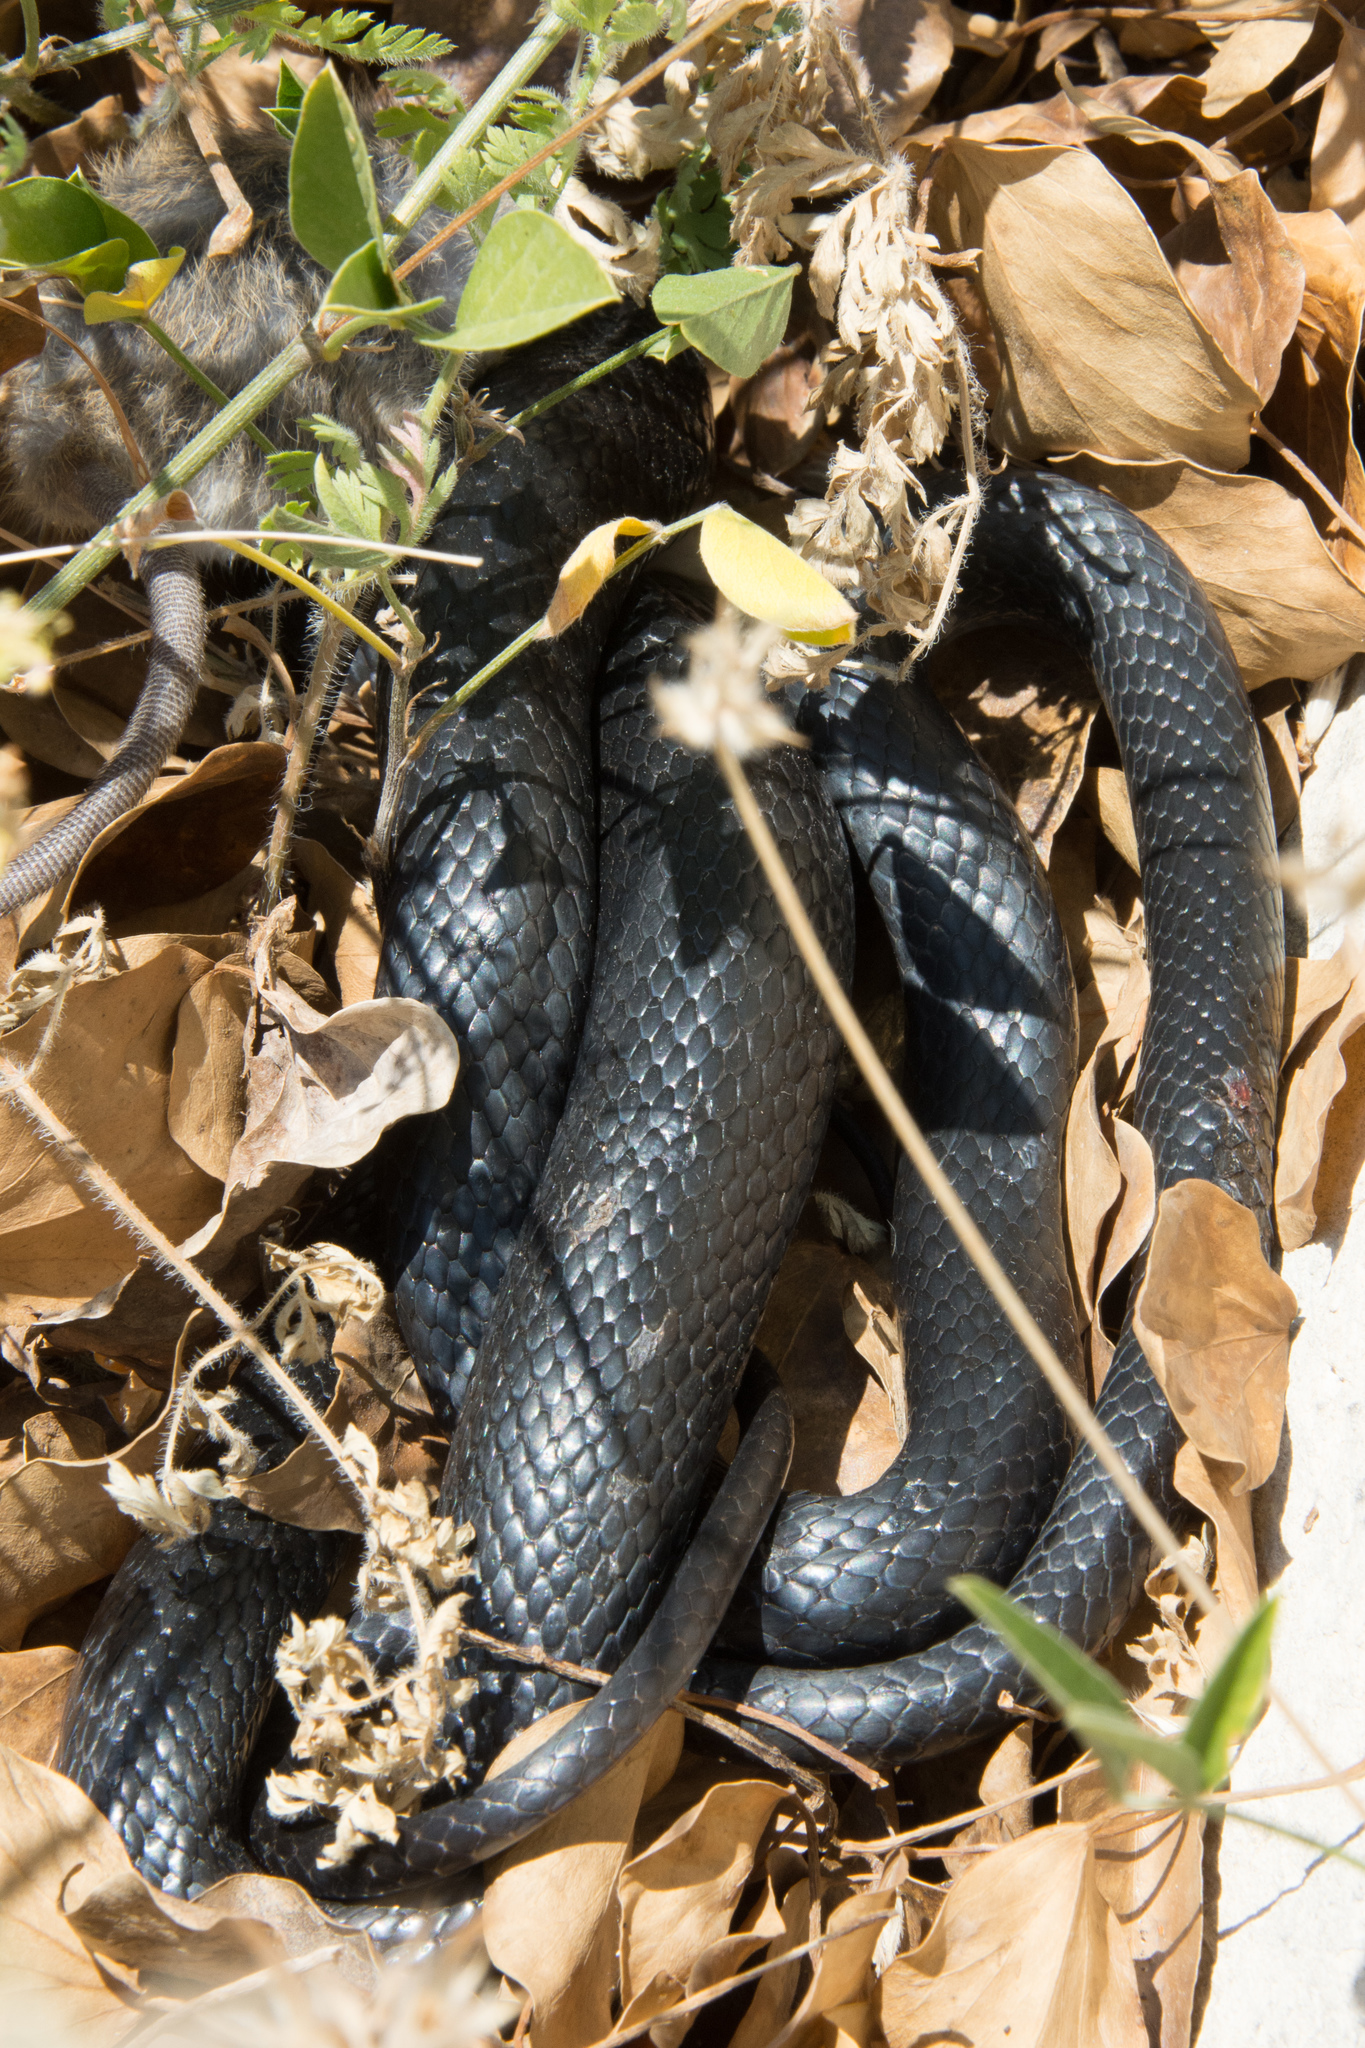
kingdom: Animalia
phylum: Chordata
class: Squamata
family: Colubridae
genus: Hierophis
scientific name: Hierophis viridiflavus
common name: Green whip snake
